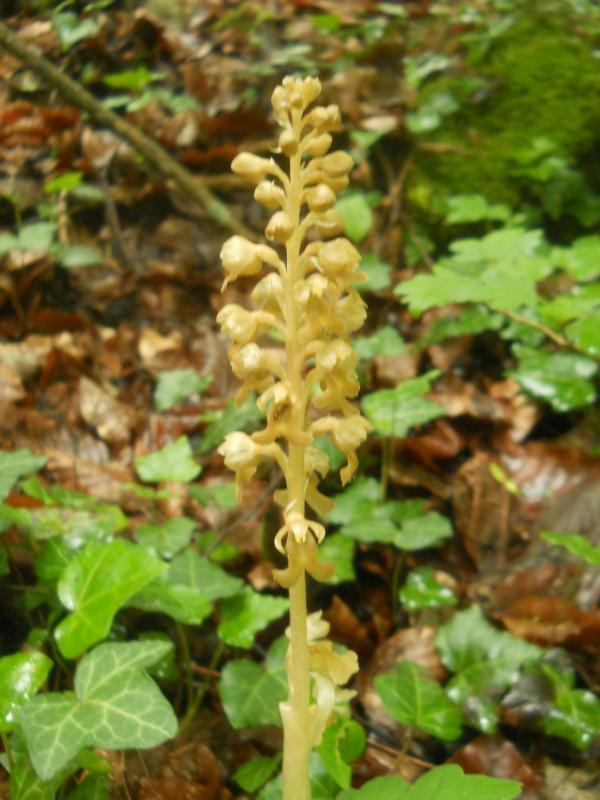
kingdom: Plantae
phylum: Tracheophyta
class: Liliopsida
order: Asparagales
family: Orchidaceae
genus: Neottia
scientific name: Neottia nidus-avis
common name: Bird's-nest orchid
